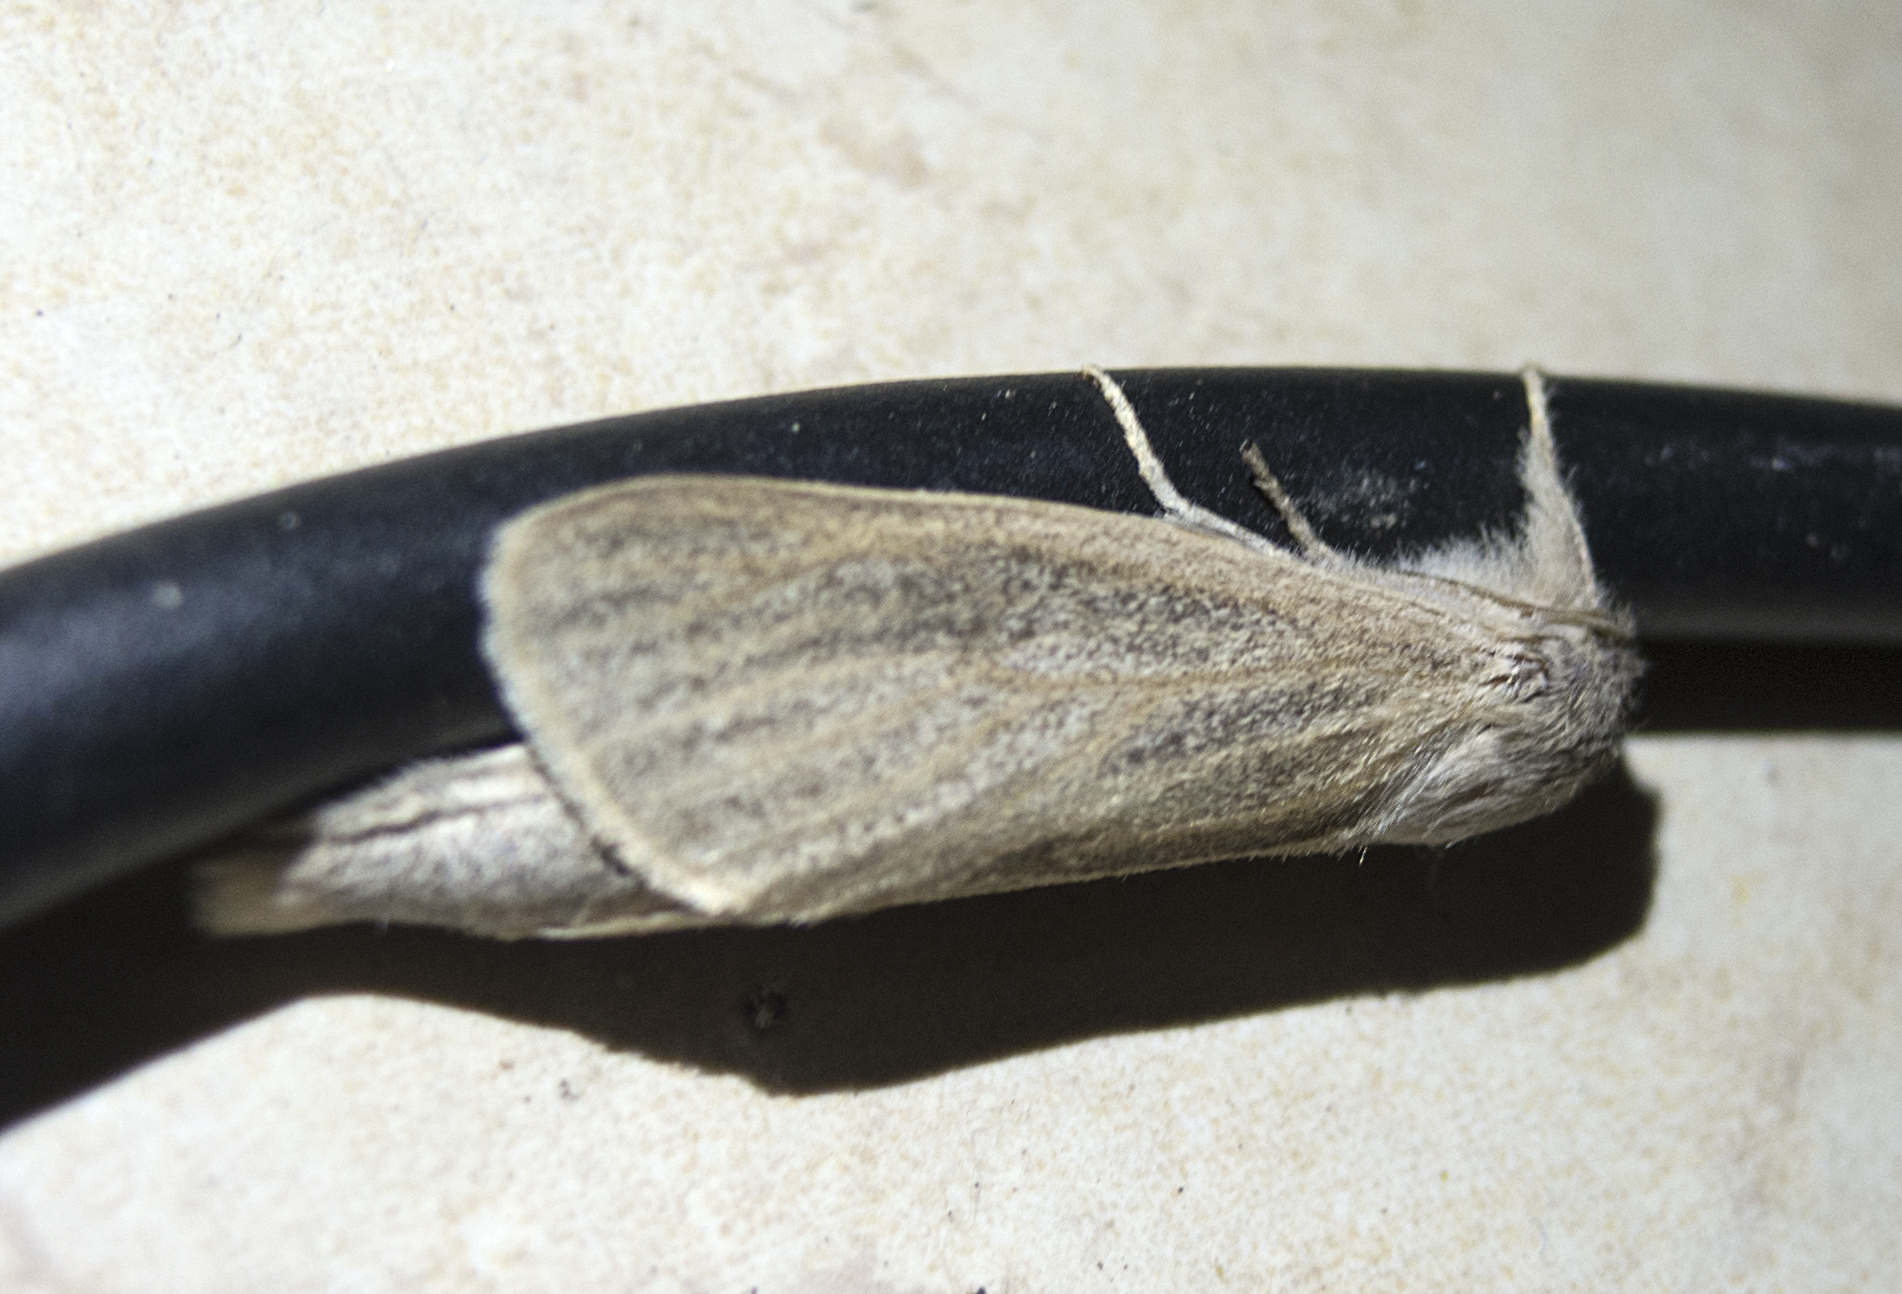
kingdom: Animalia
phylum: Arthropoda
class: Insecta
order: Lepidoptera
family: Cossidae
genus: Phragmataecia
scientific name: Phragmataecia castaneae
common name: Reed leopard
